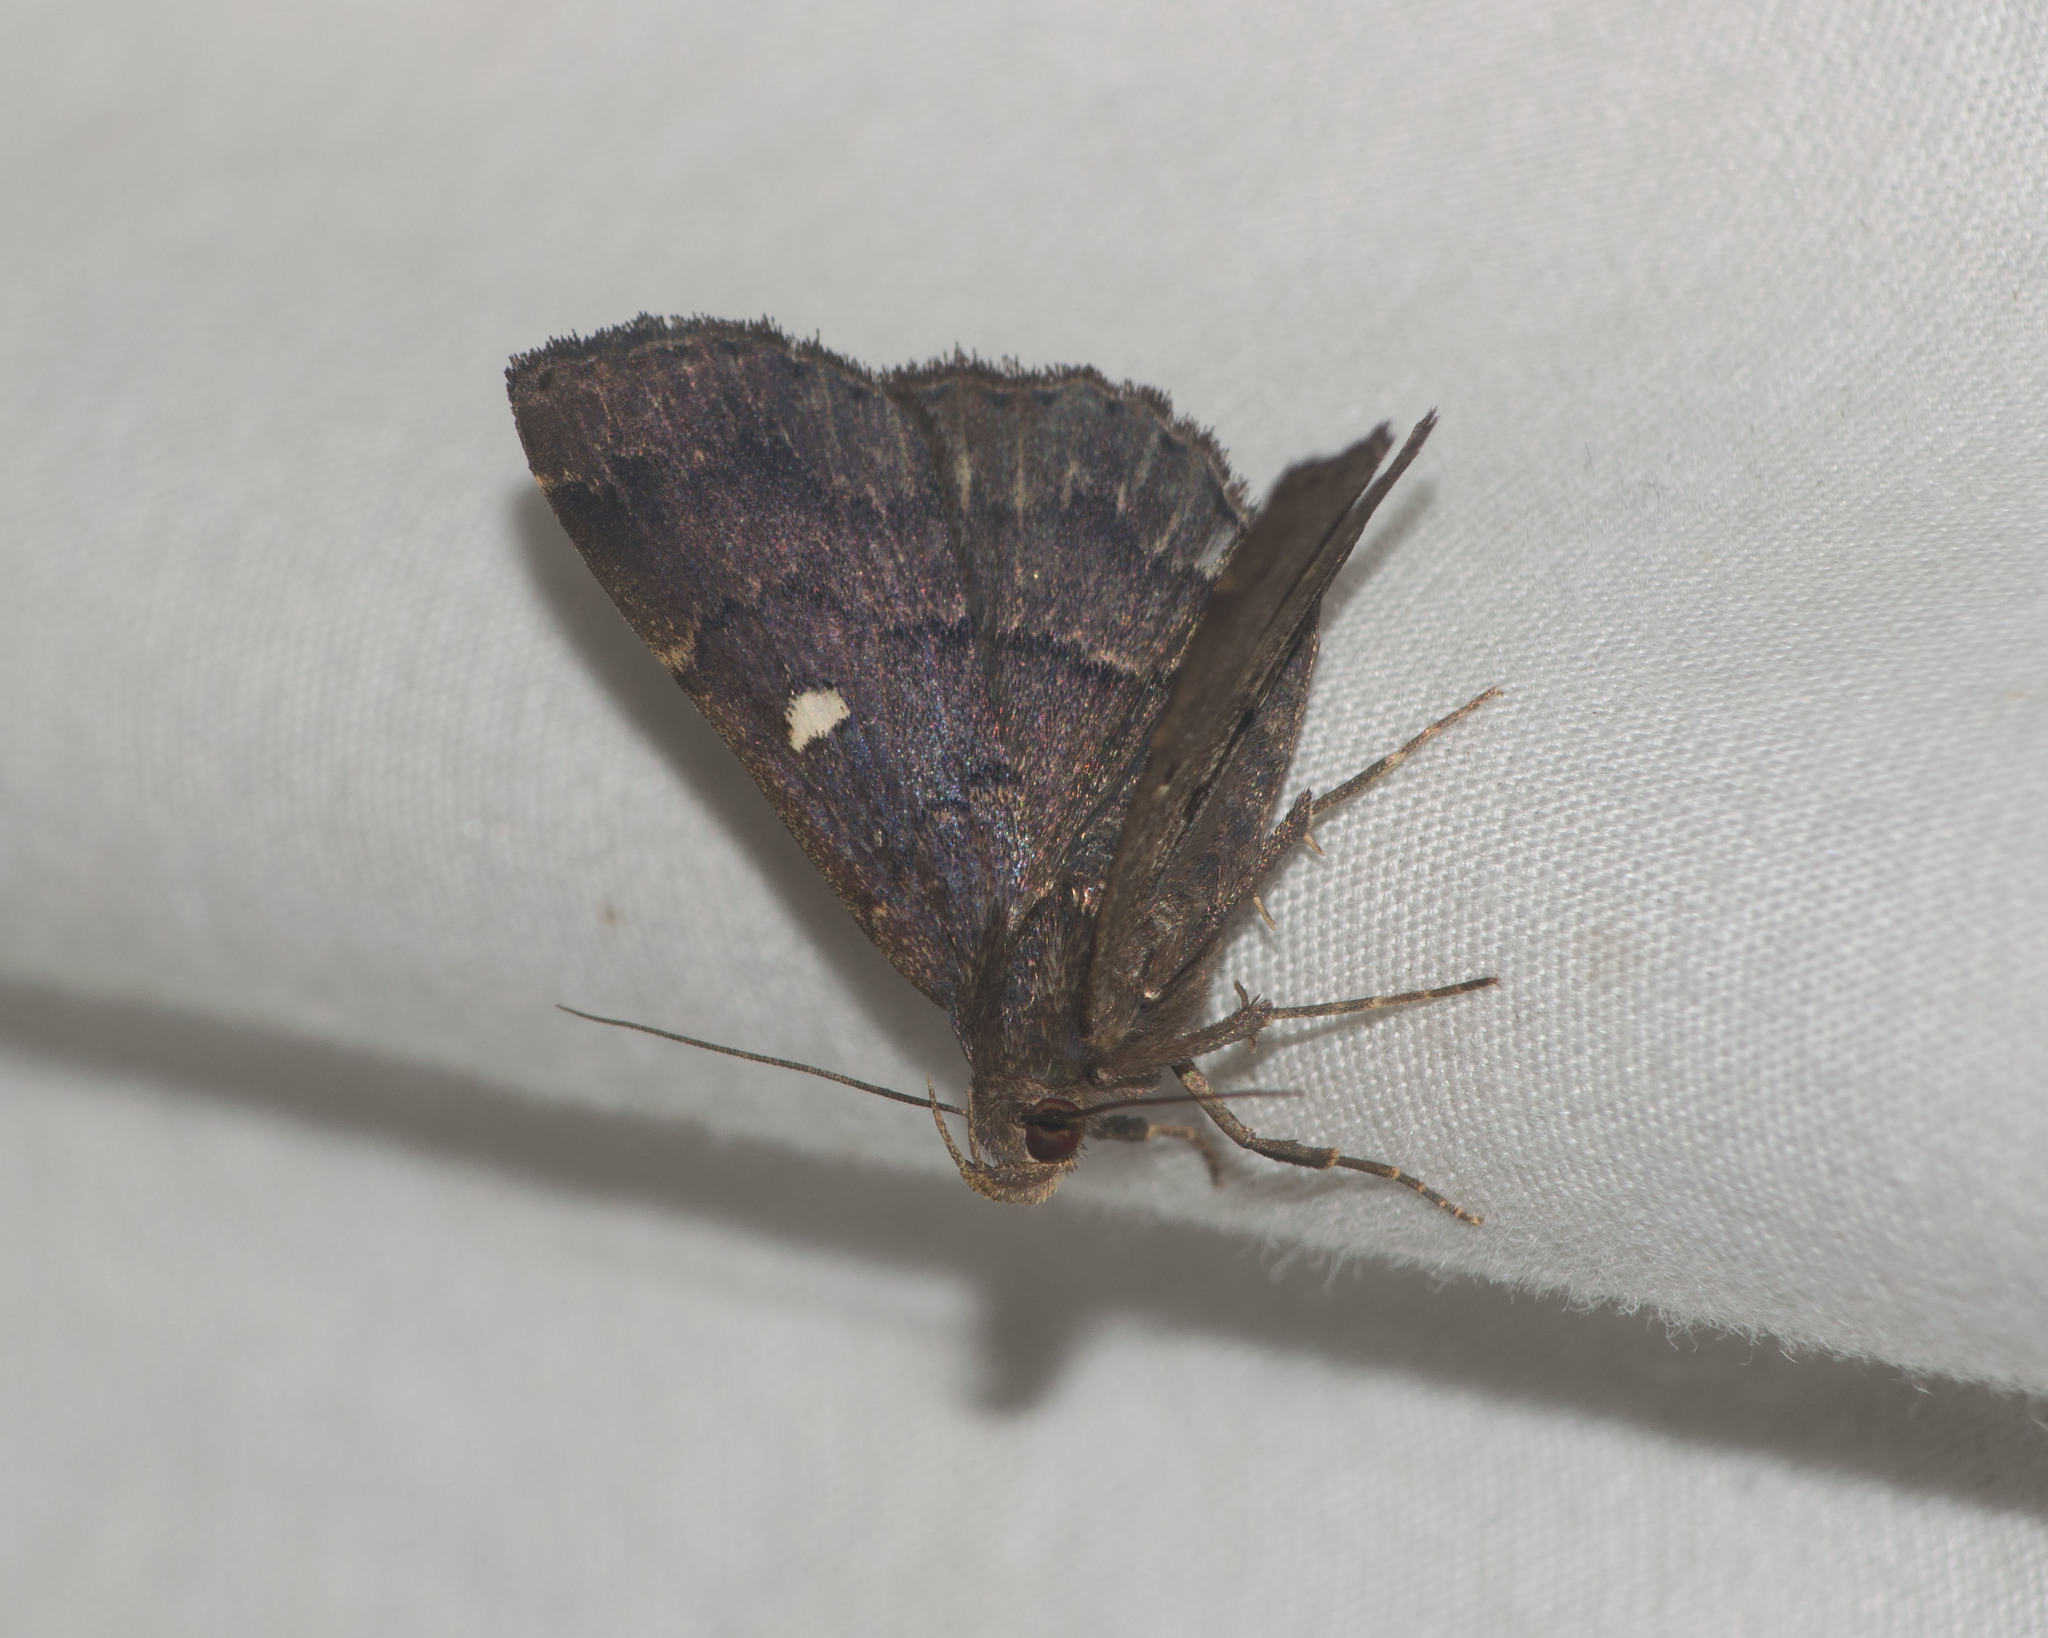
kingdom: Animalia
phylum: Arthropoda
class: Insecta
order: Lepidoptera
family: Erebidae
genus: Bocana
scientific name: Bocana manifestalis
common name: Moth
